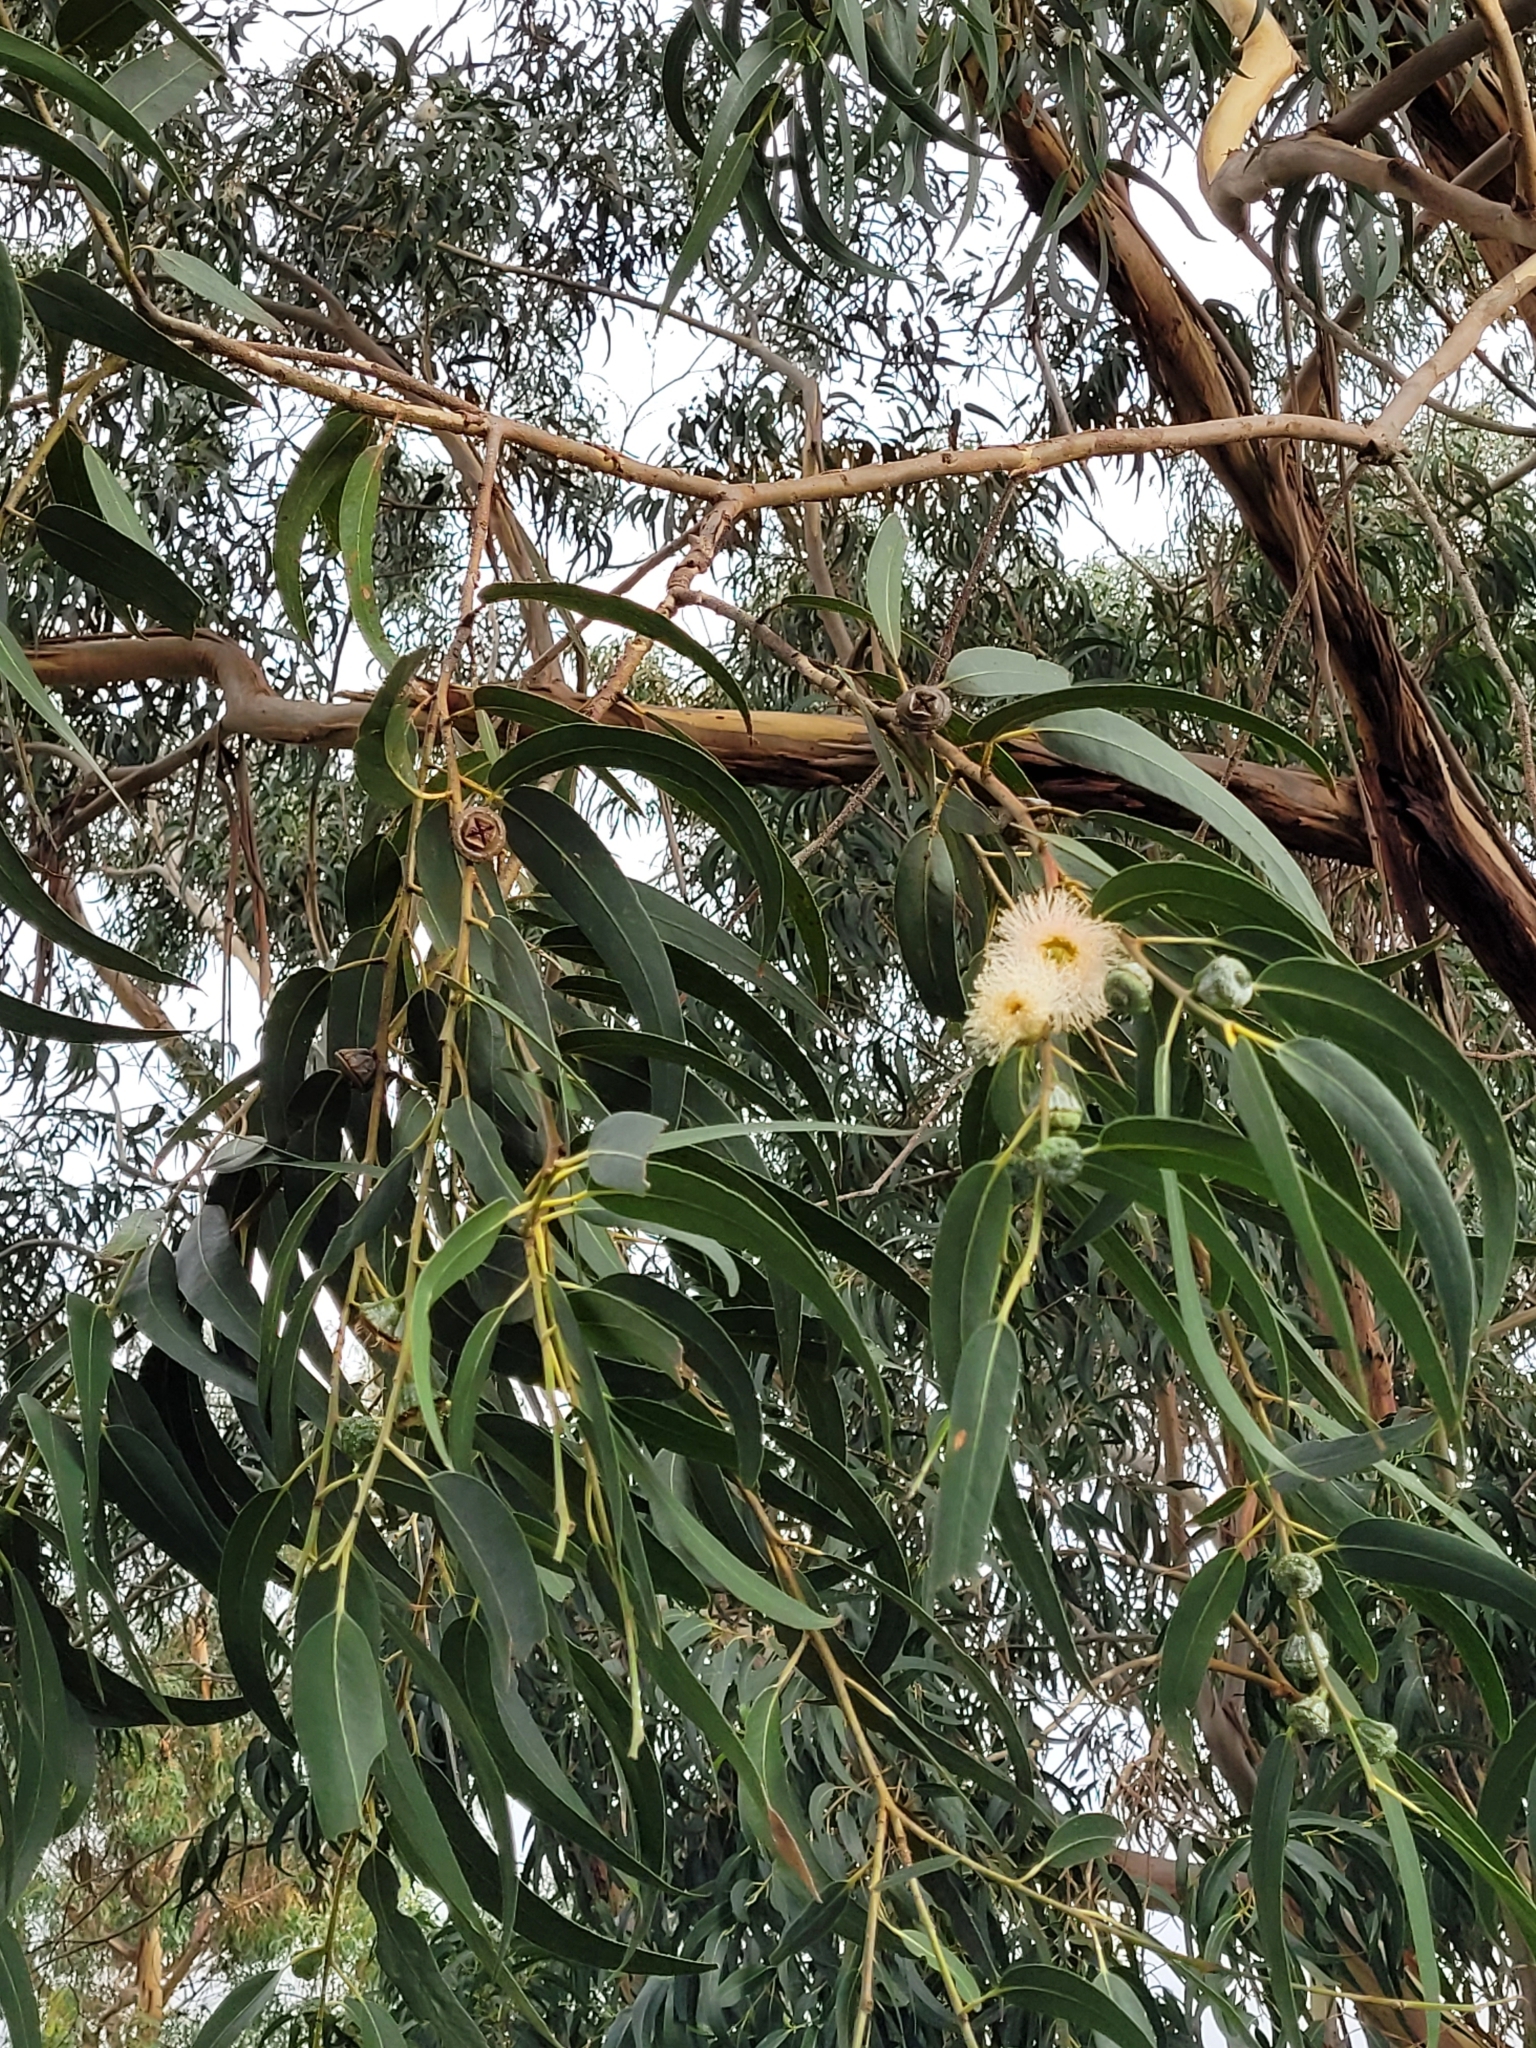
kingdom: Plantae
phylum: Tracheophyta
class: Magnoliopsida
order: Myrtales
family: Myrtaceae
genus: Eucalyptus
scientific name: Eucalyptus globulus
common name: Southern blue-gum
